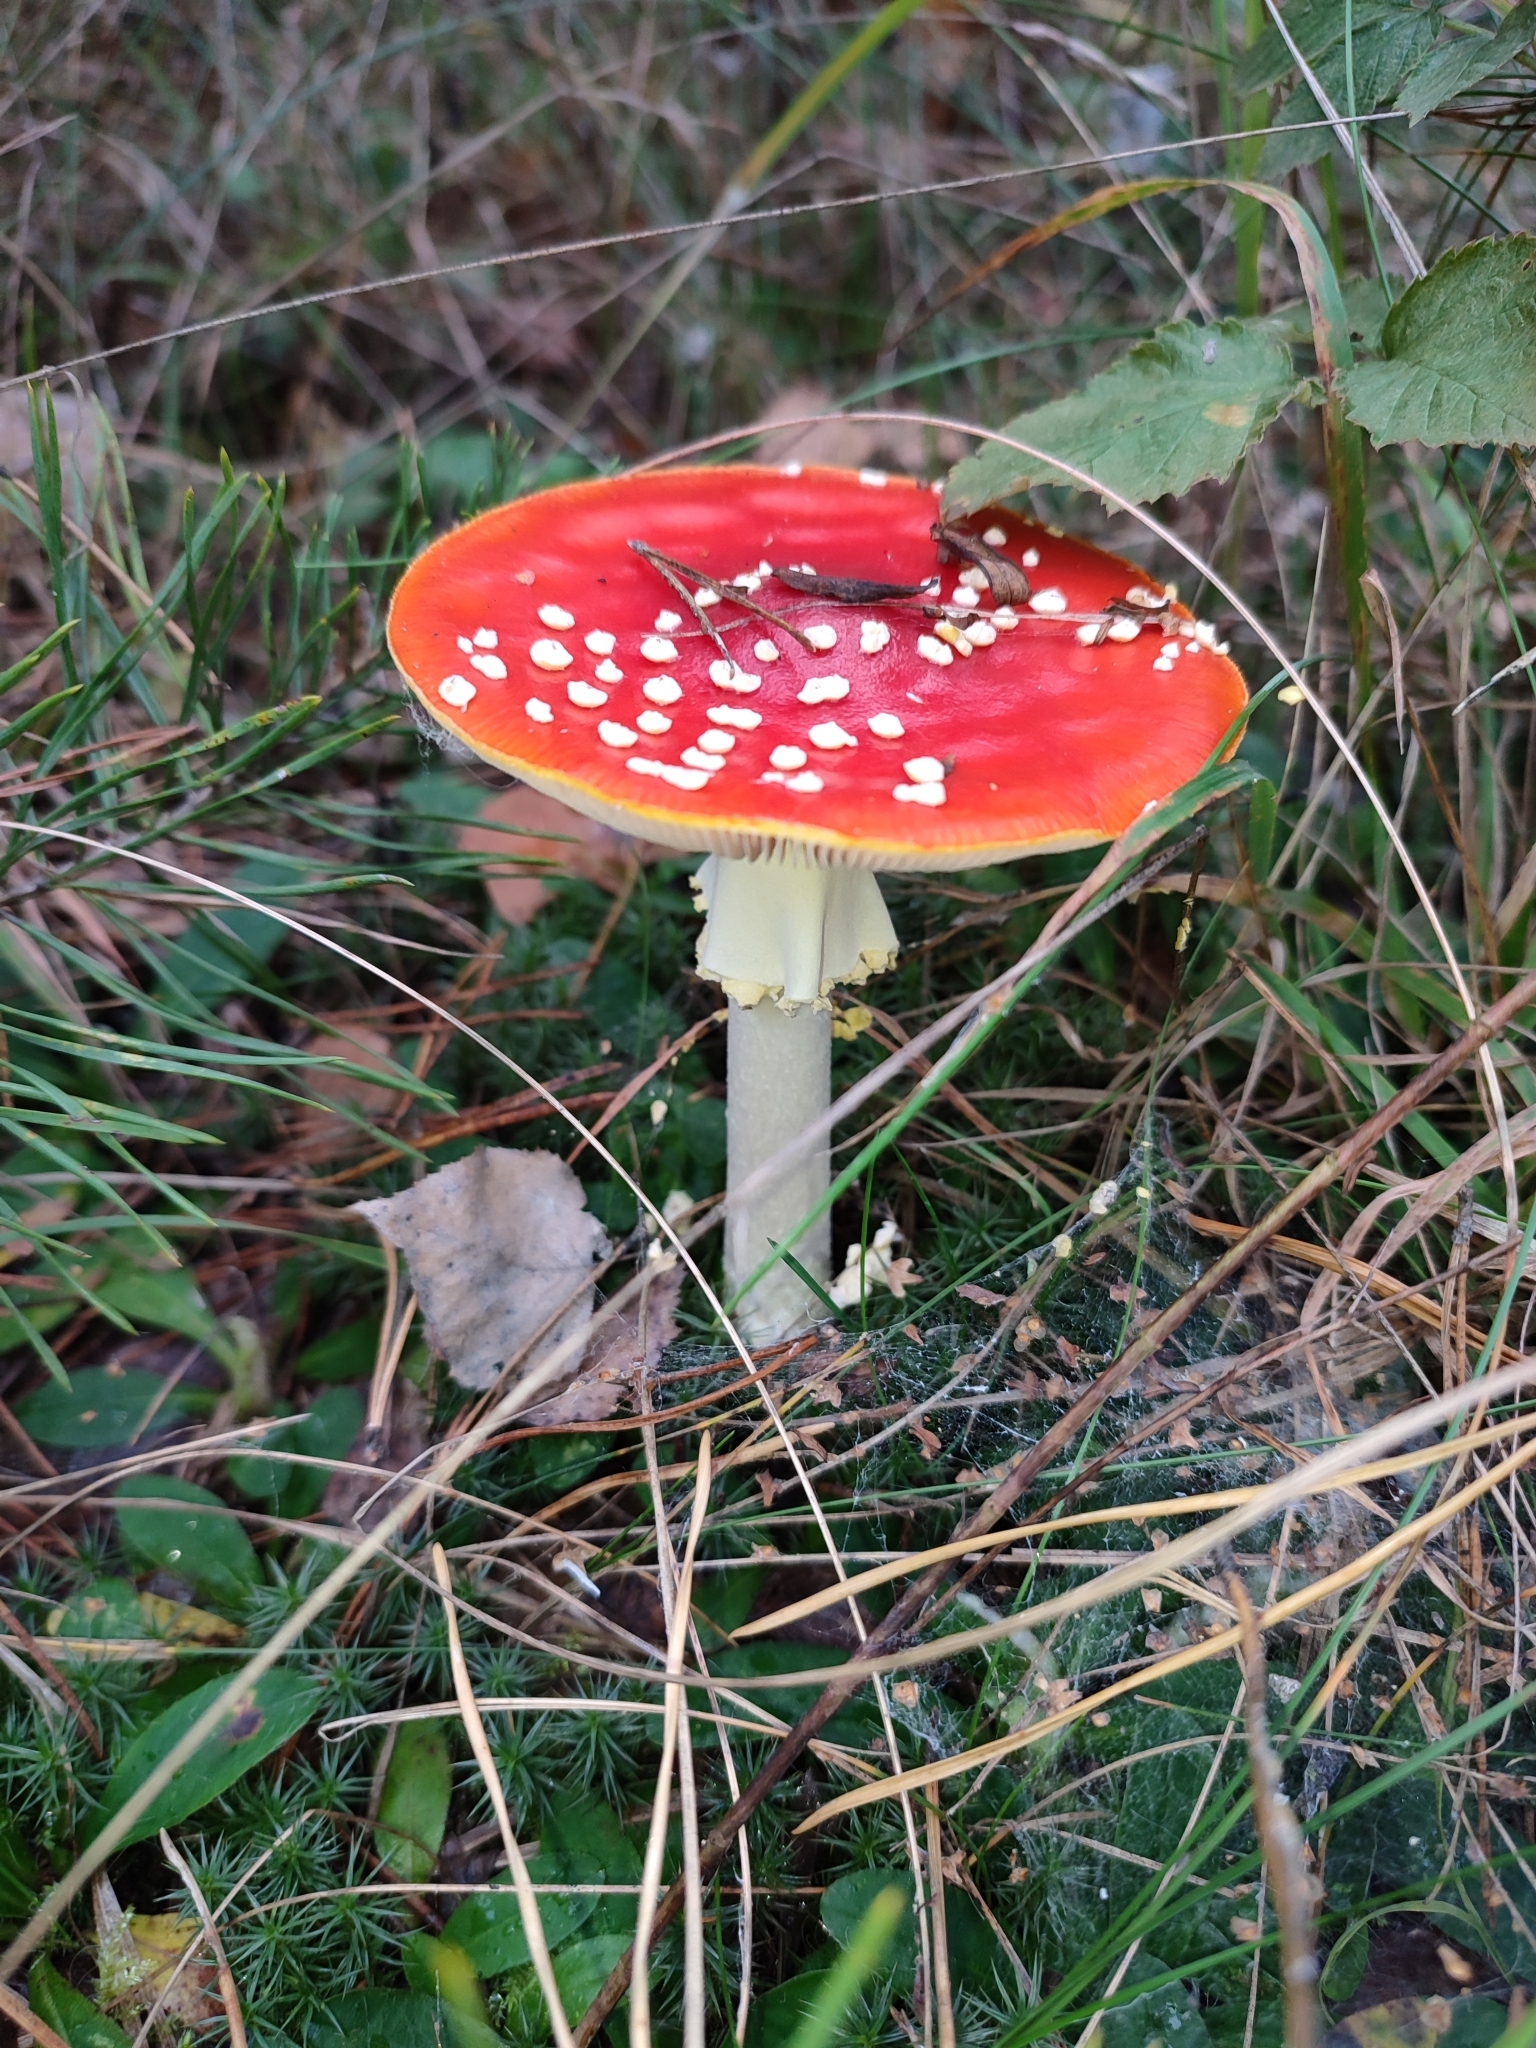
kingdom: Fungi
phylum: Basidiomycota
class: Agaricomycetes
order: Agaricales
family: Amanitaceae
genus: Amanita
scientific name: Amanita muscaria
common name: Fly agaric
